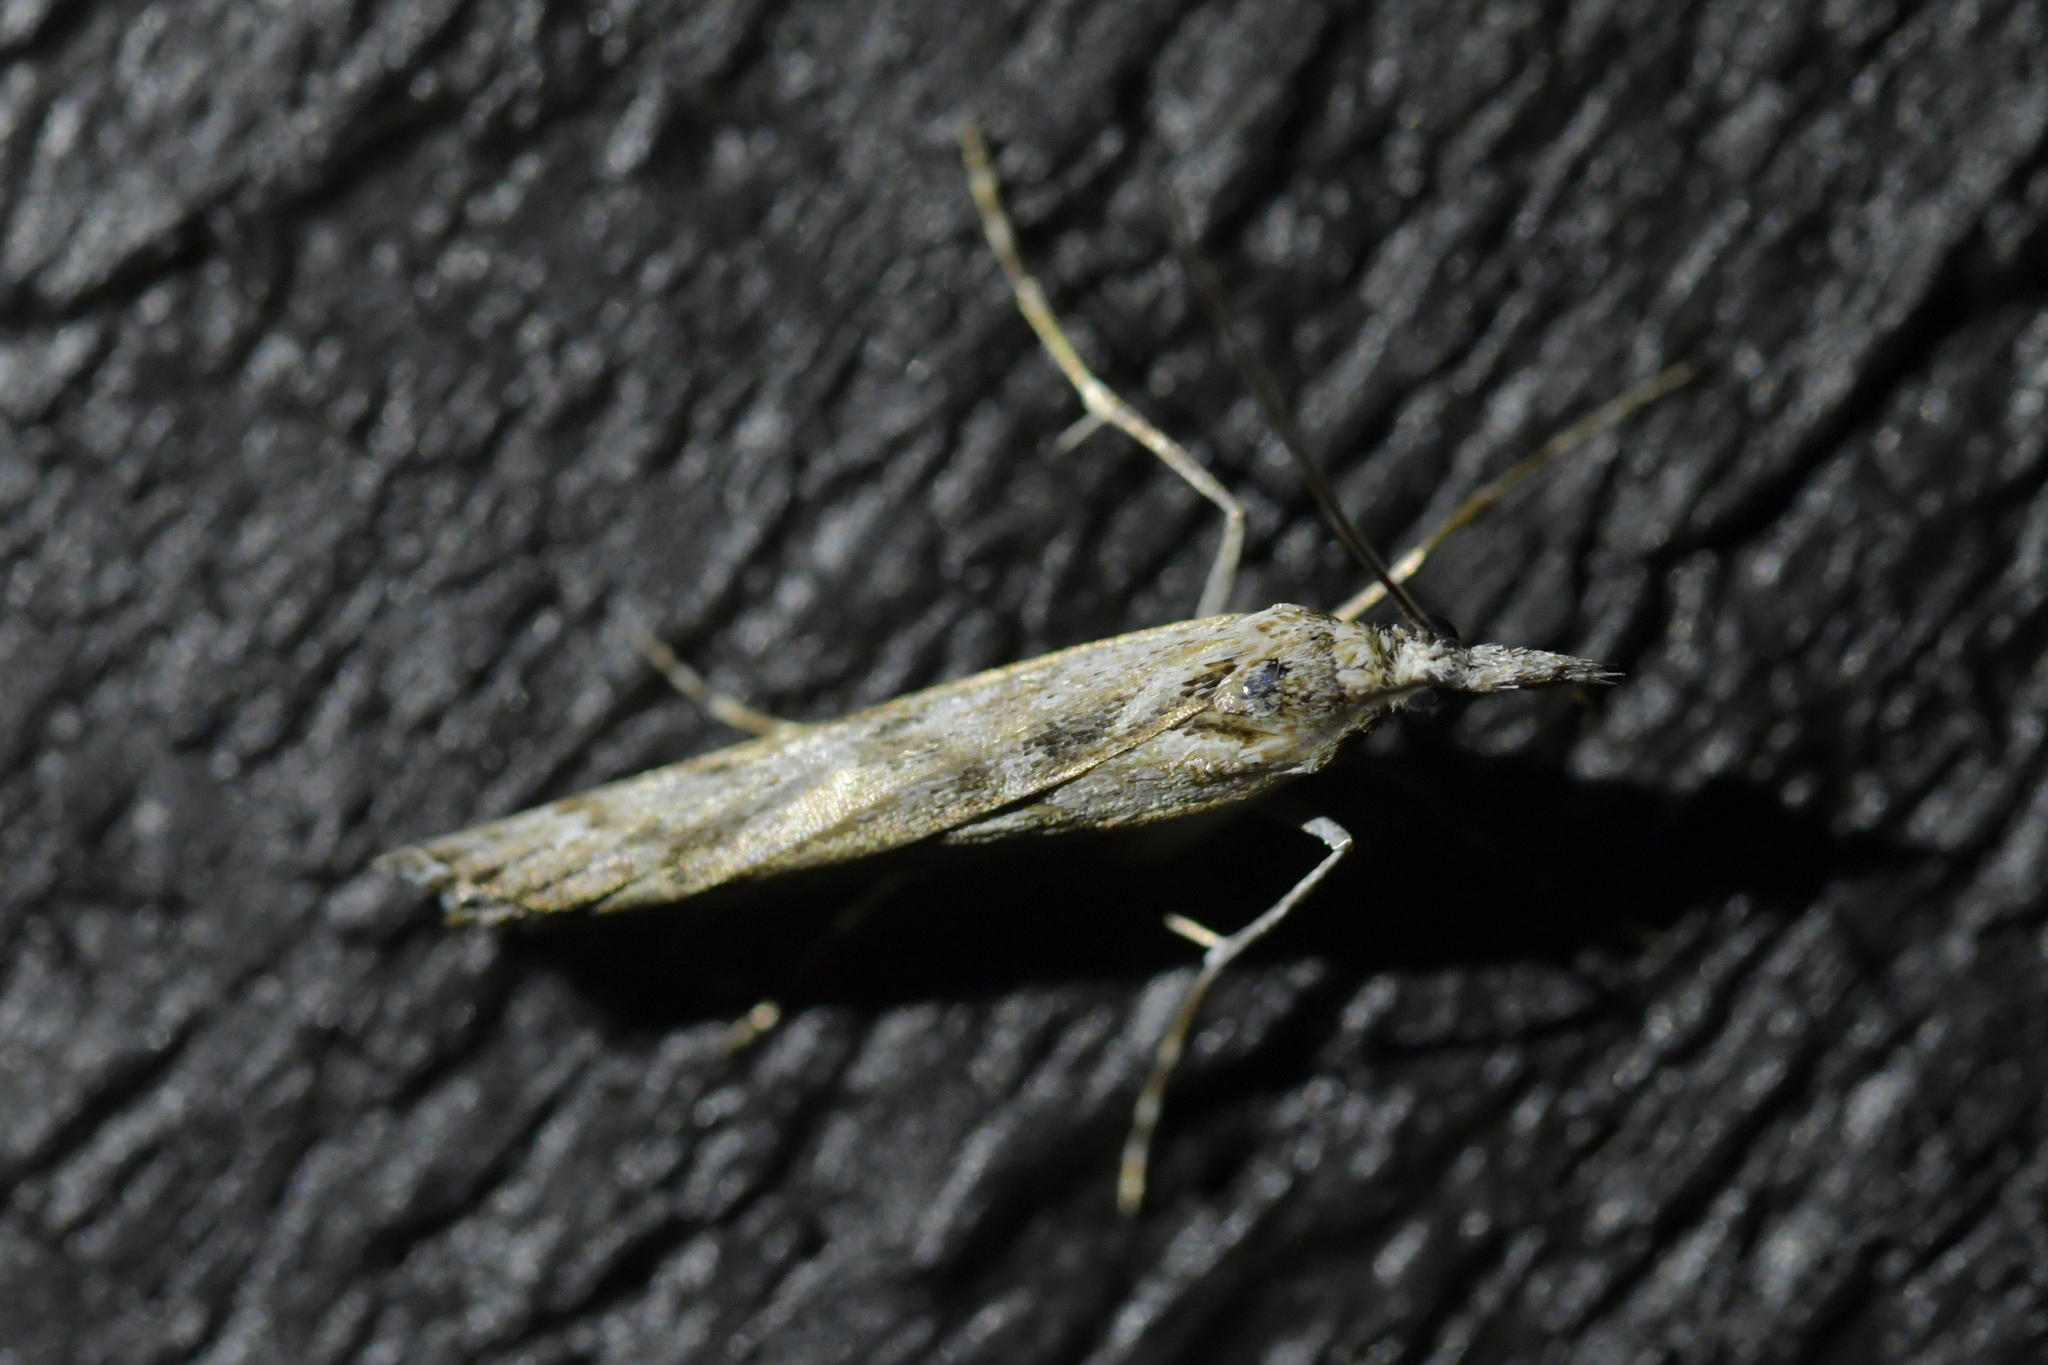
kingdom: Animalia
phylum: Arthropoda
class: Insecta
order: Lepidoptera
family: Crambidae
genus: Orocrambus
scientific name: Orocrambus cyclopicus
